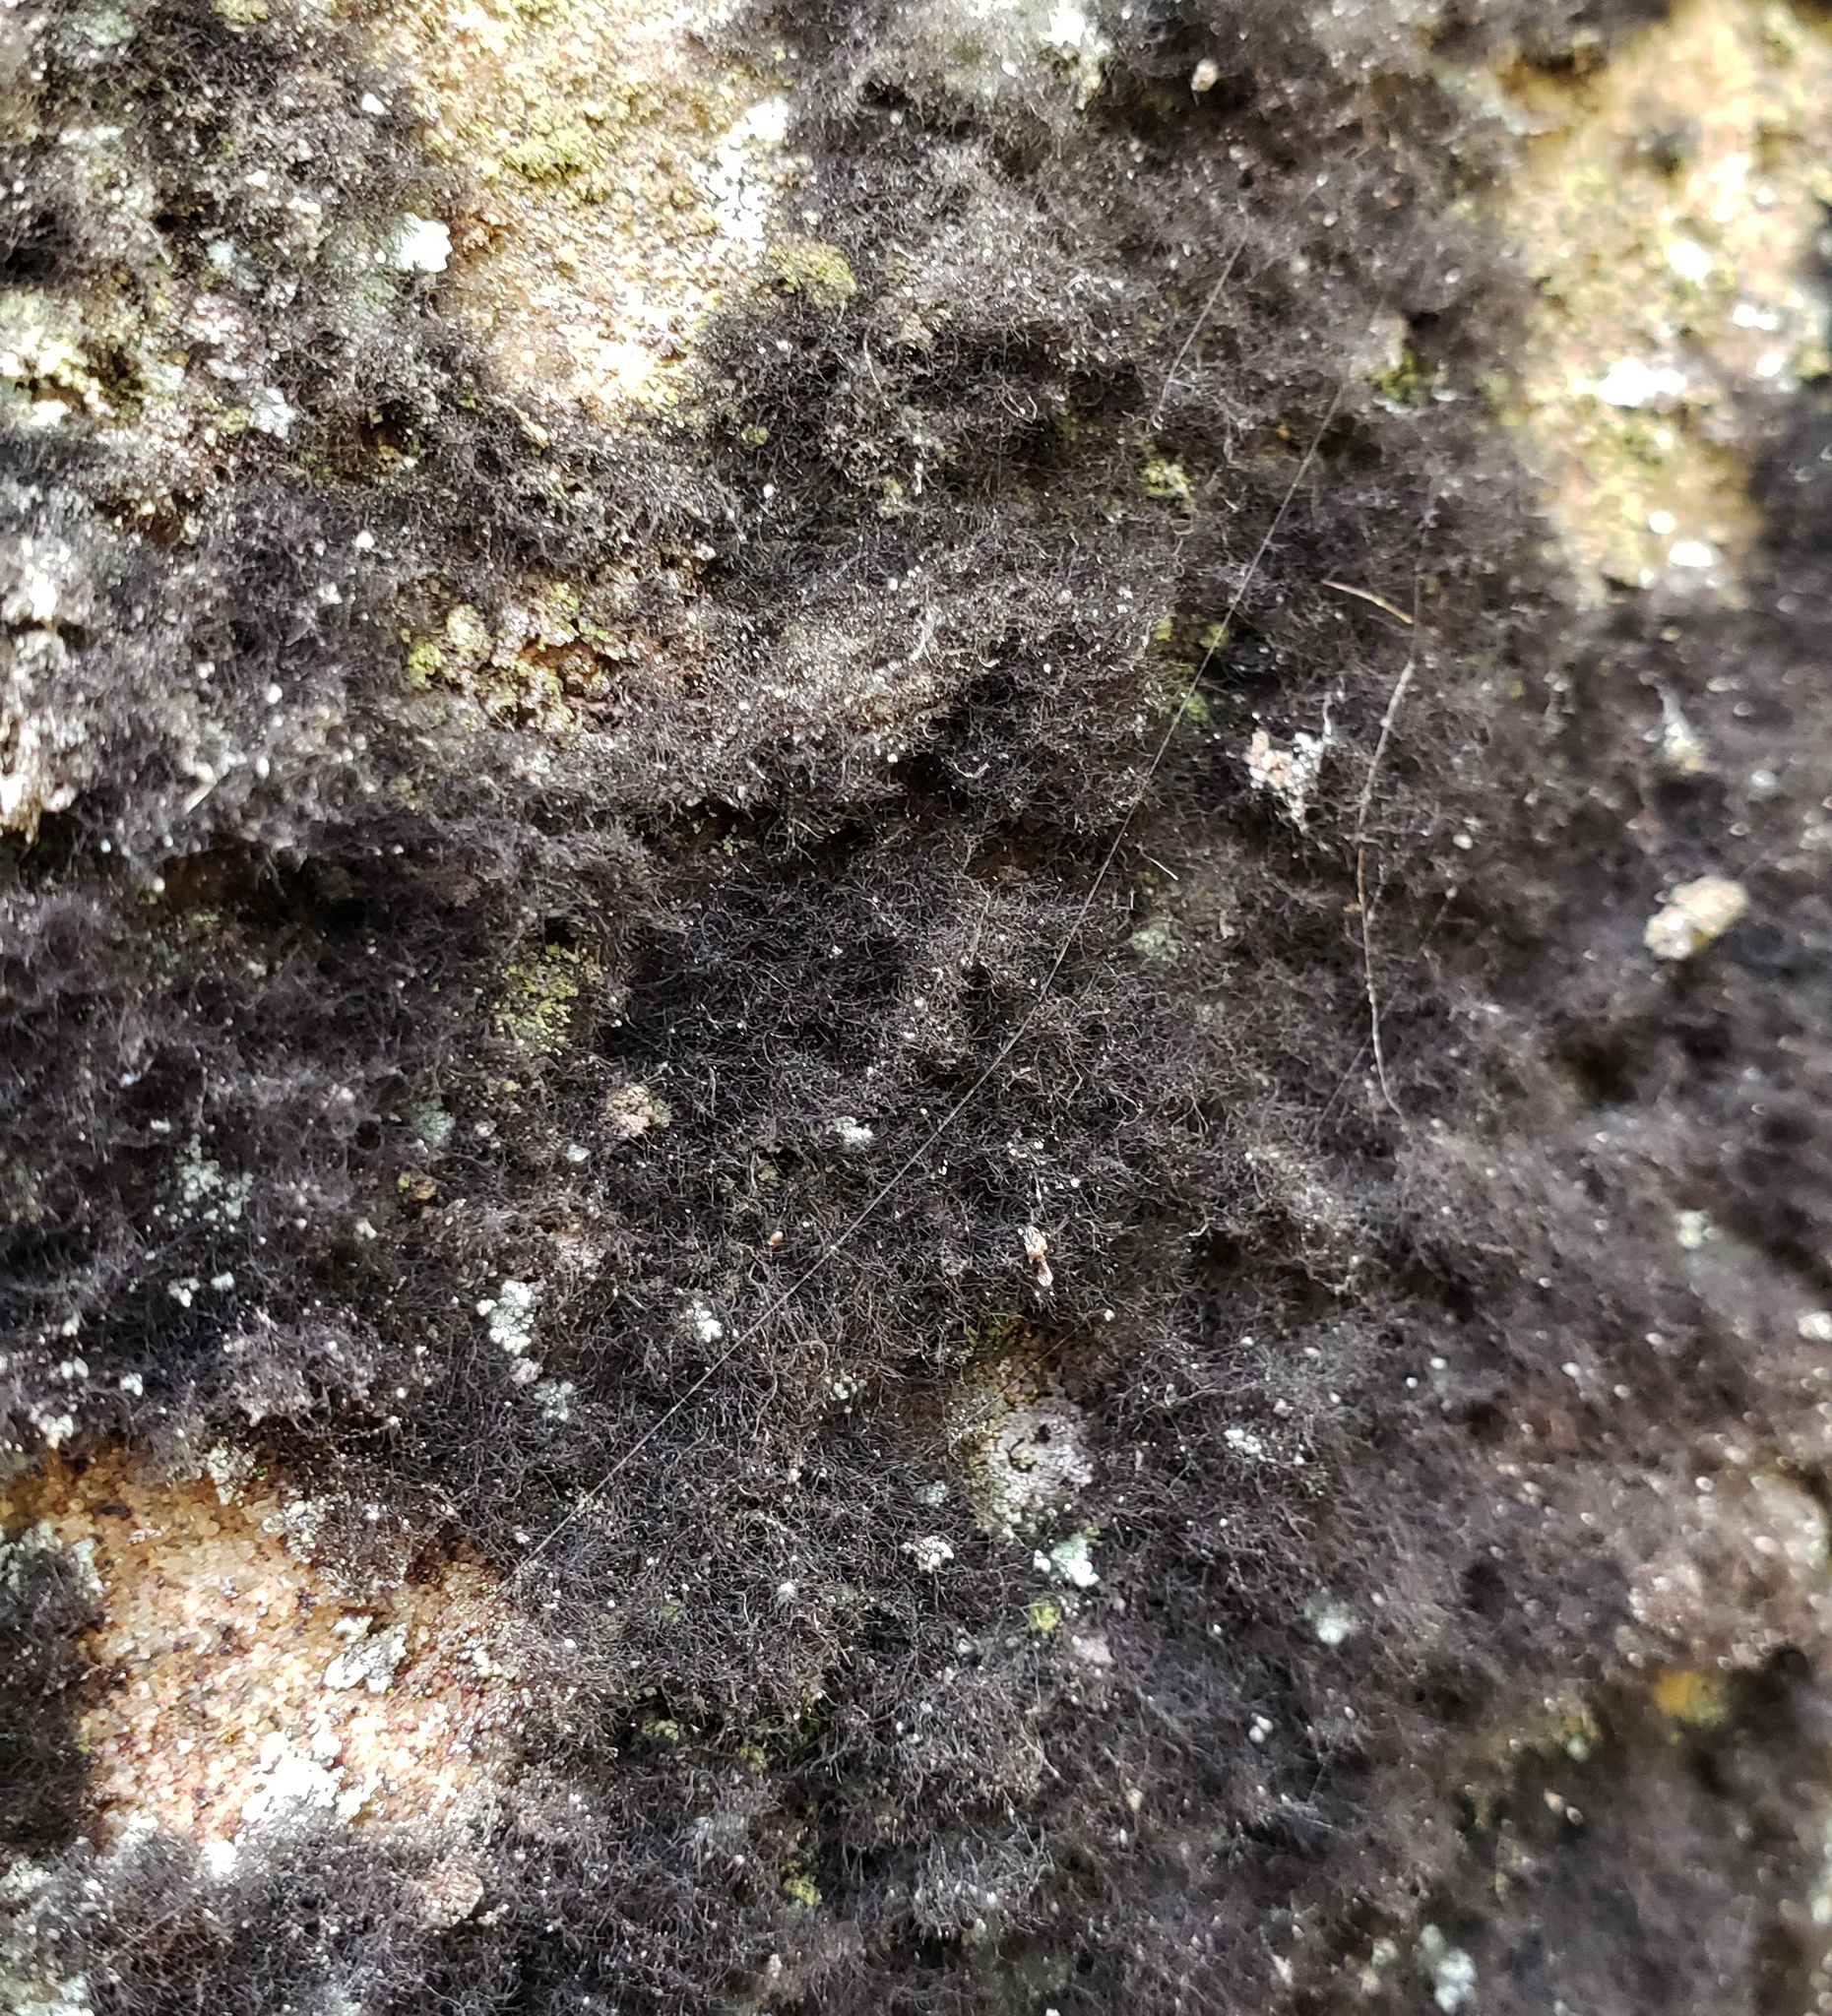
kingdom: Fungi
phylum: Ascomycota
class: Dothideomycetes
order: Capnodiales
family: Cystocoleaceae
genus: Cystocoleus
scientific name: Cystocoleus ebeneus
